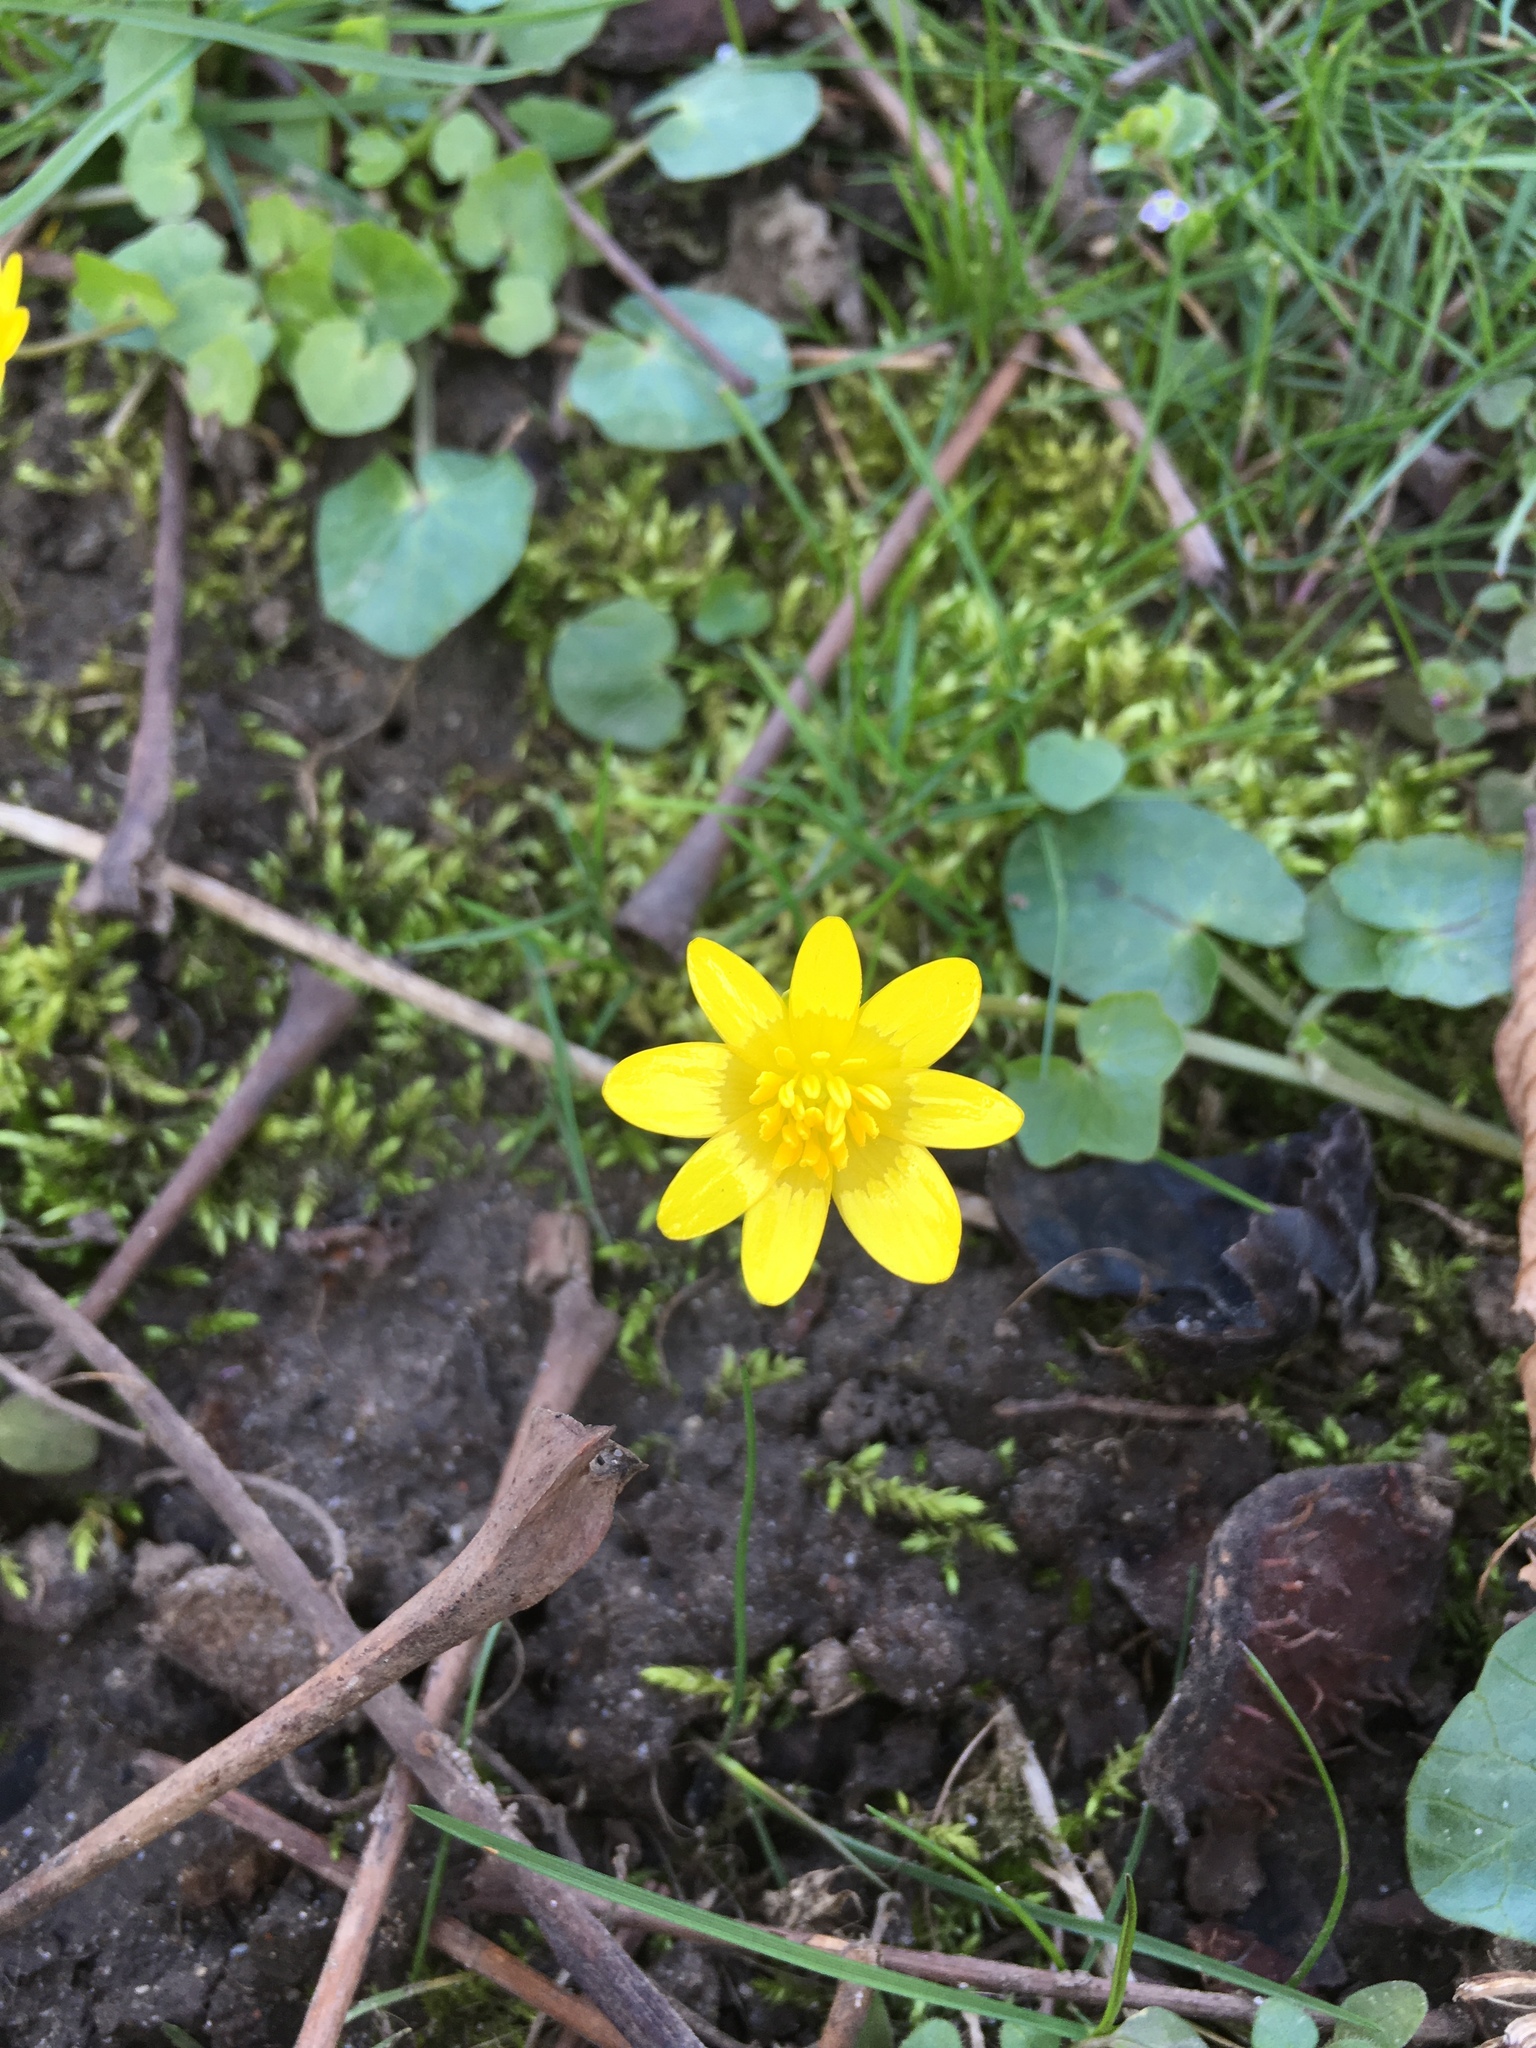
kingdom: Plantae
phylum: Tracheophyta
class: Magnoliopsida
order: Ranunculales
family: Ranunculaceae
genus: Ficaria
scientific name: Ficaria verna
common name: Lesser celandine
